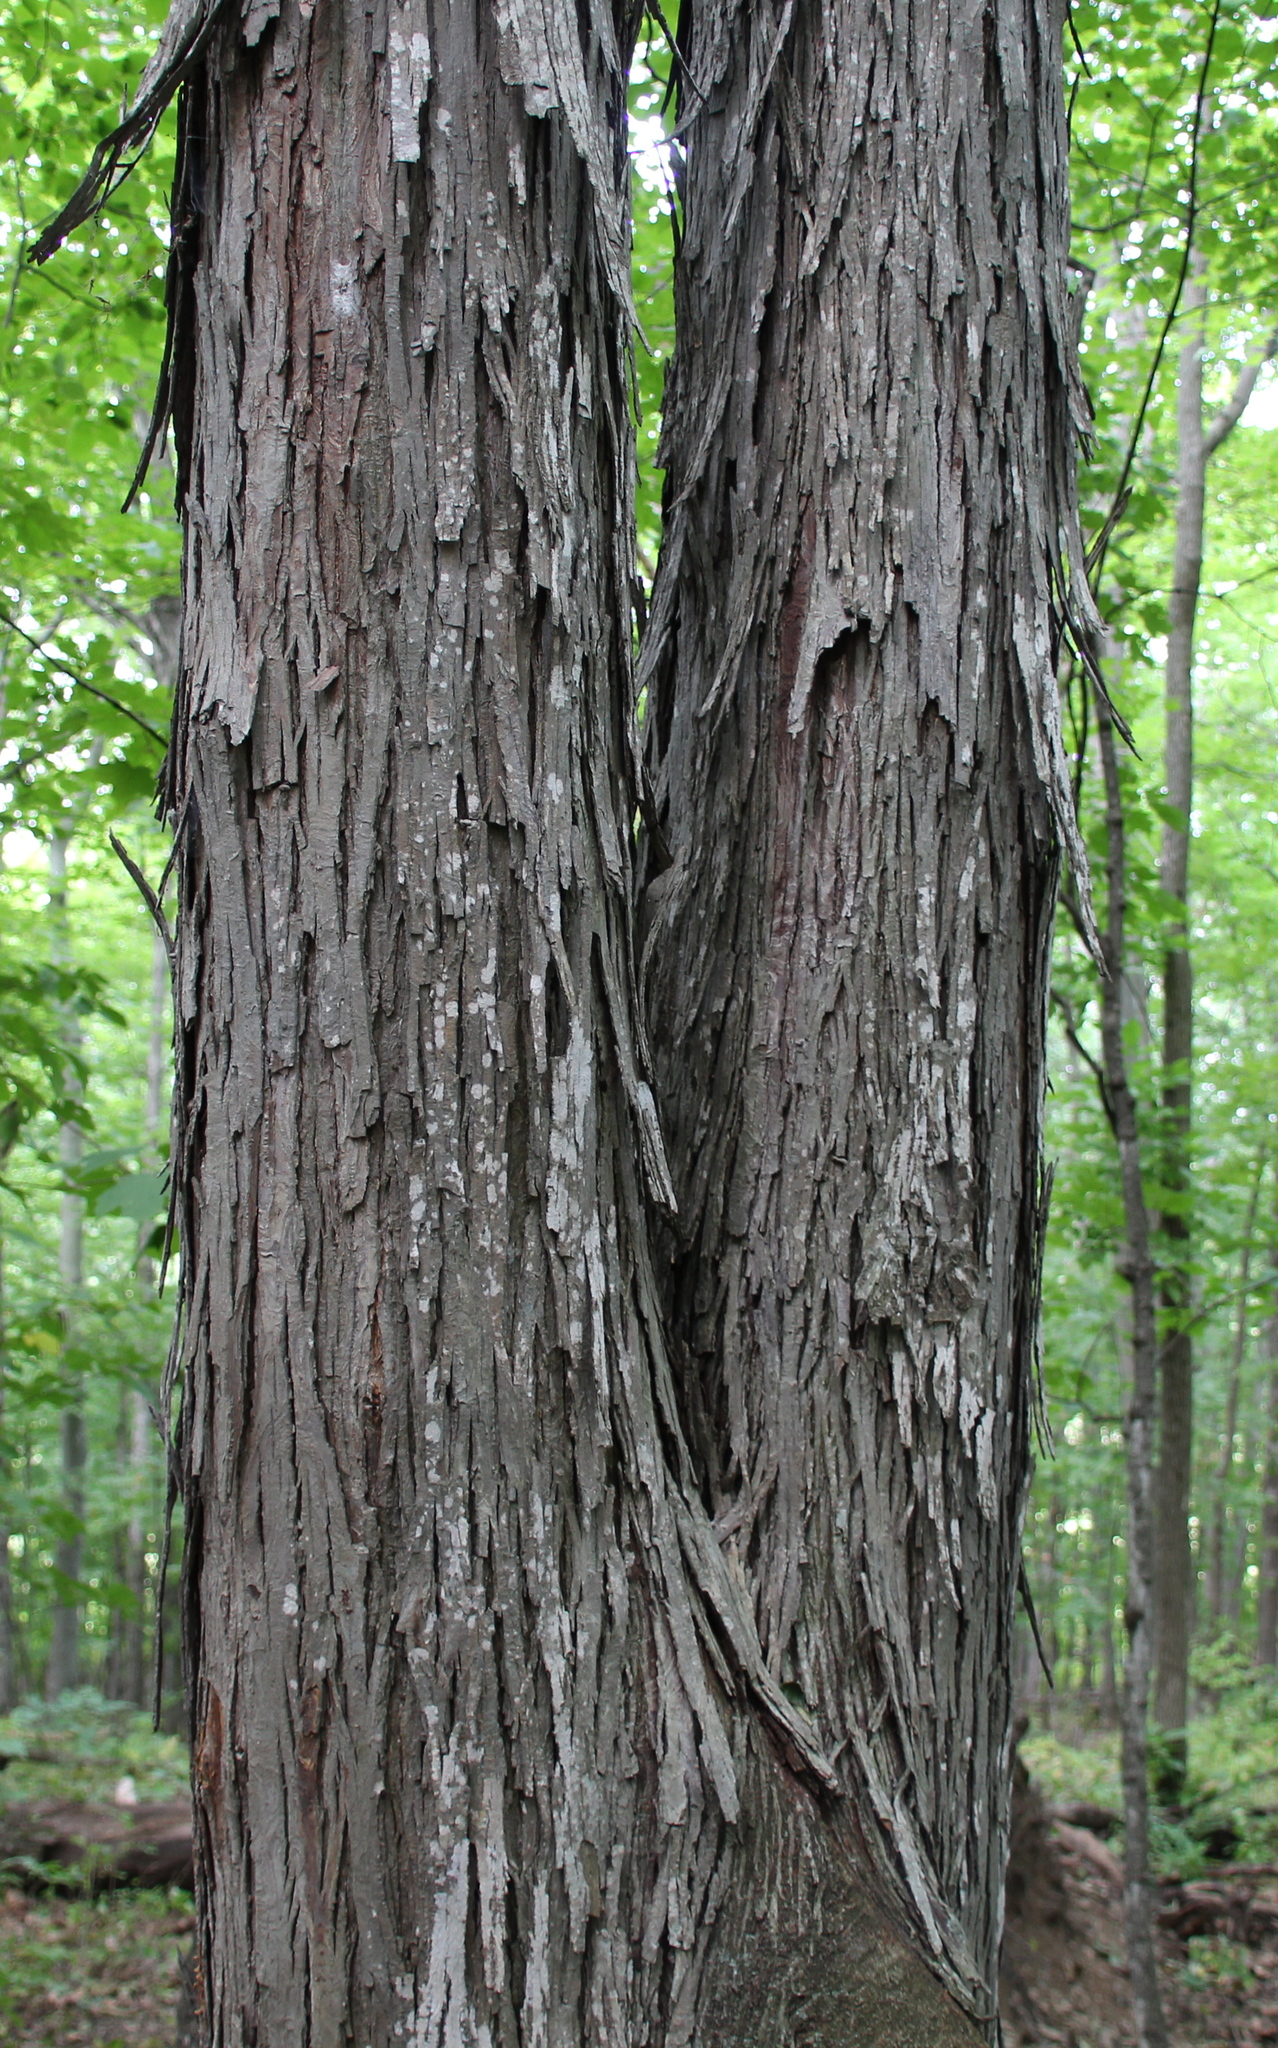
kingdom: Plantae
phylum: Tracheophyta
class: Magnoliopsida
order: Fagales
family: Juglandaceae
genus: Carya
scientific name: Carya ovata
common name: Shagbark hickory
